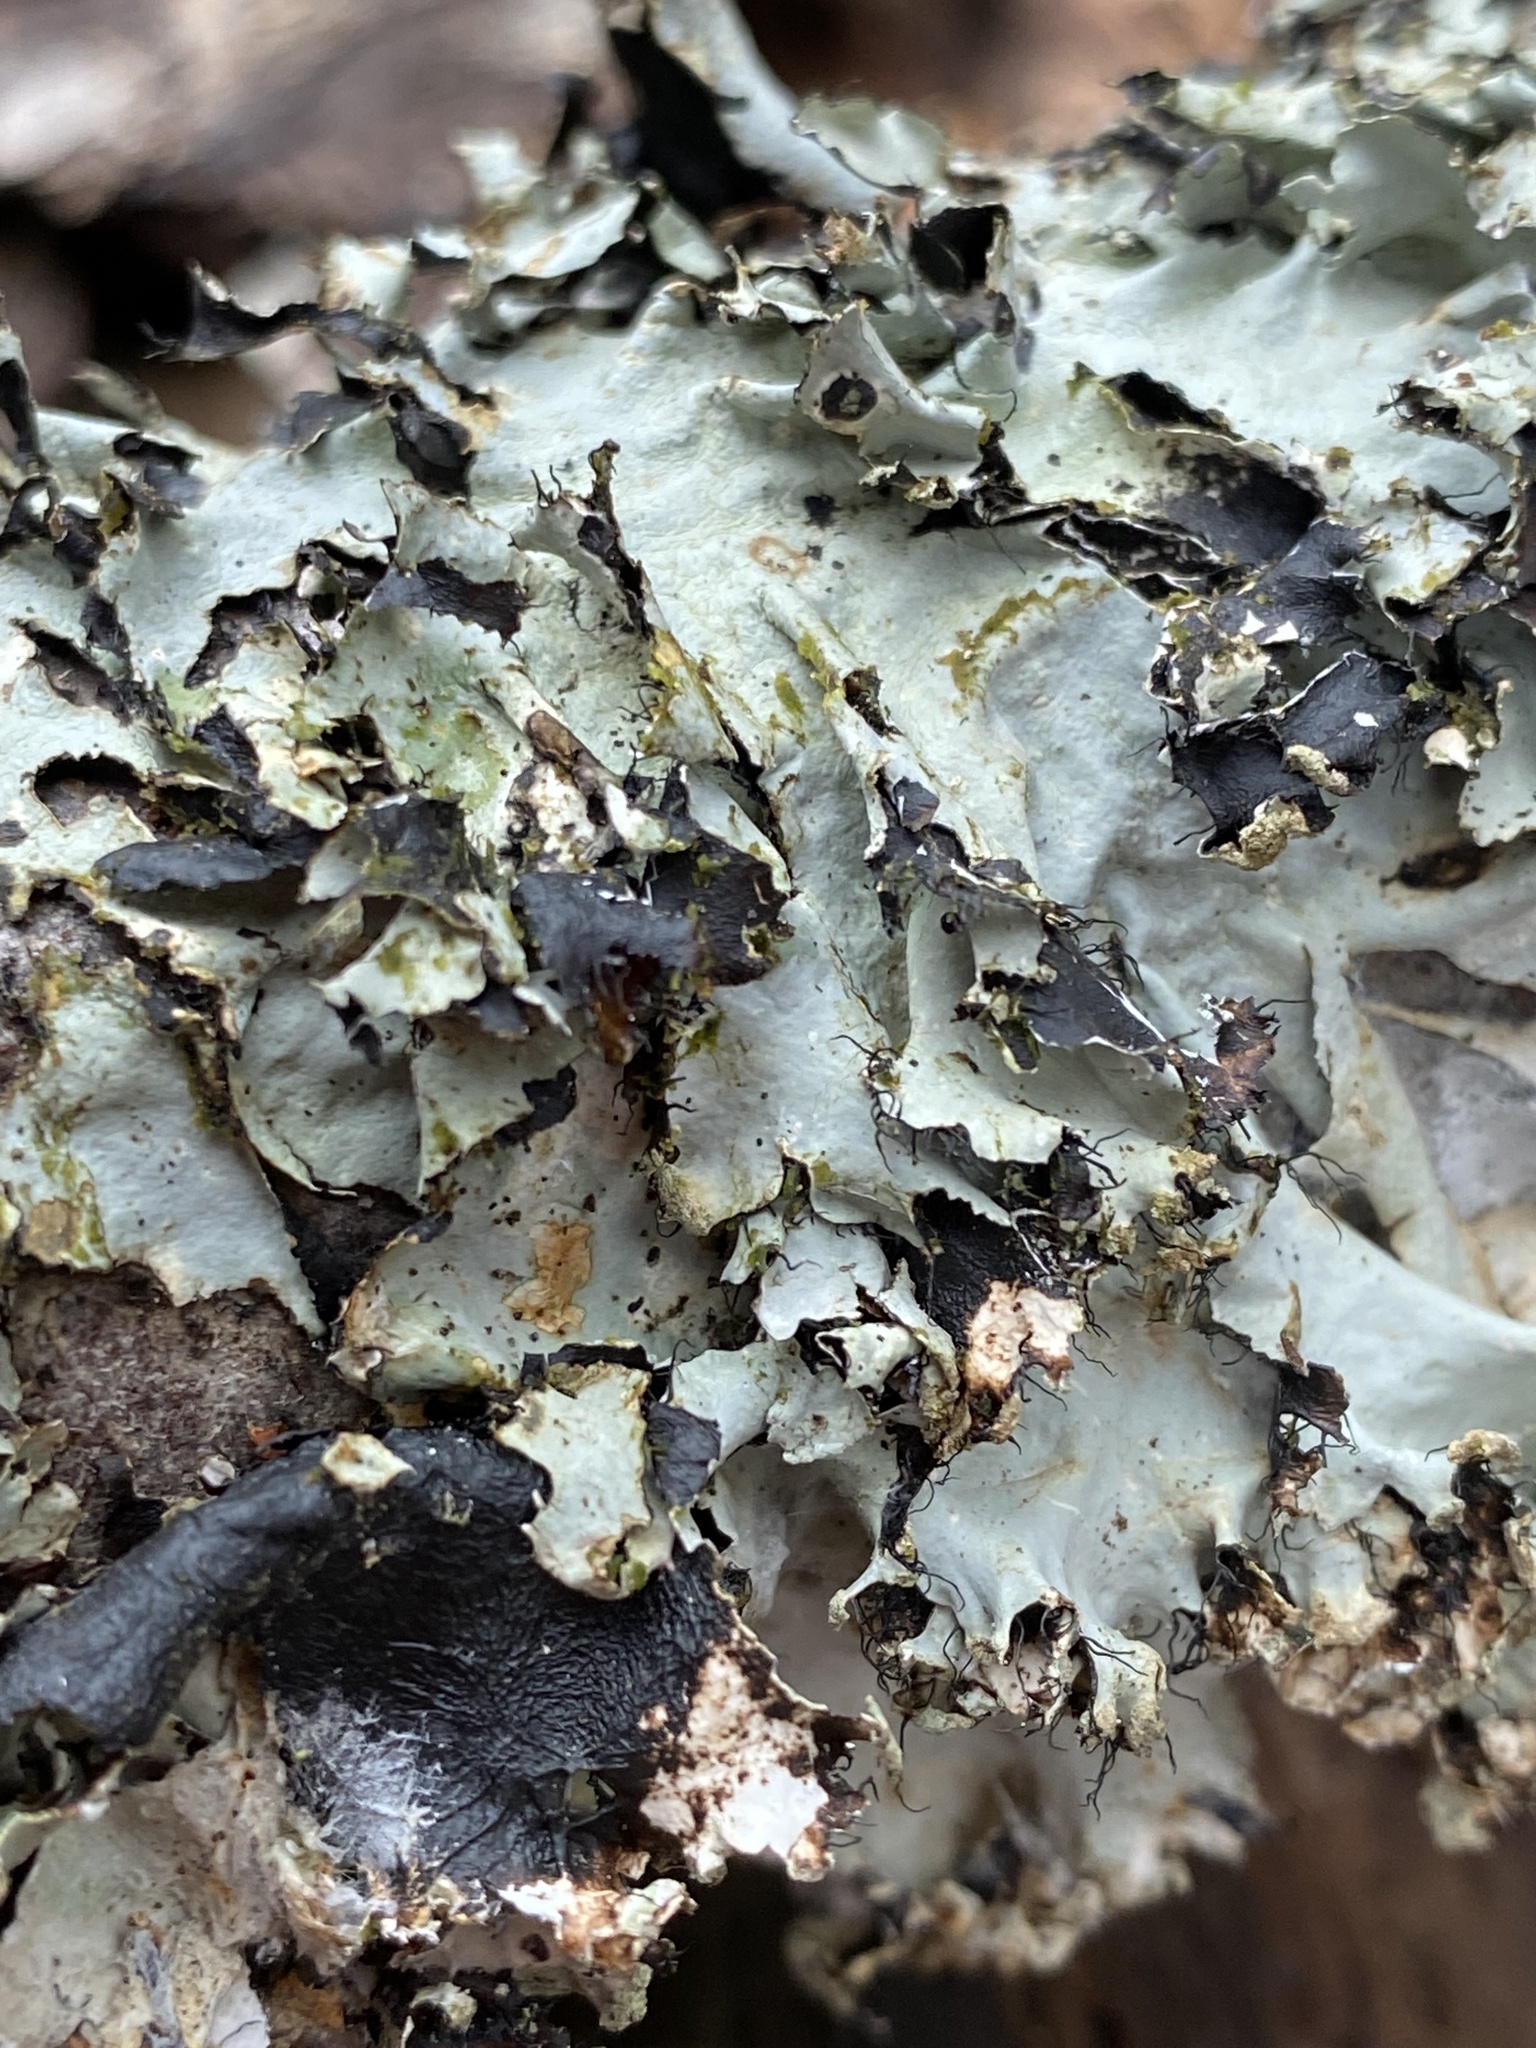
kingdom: Fungi
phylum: Ascomycota
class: Lecanoromycetes
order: Lecanorales
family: Parmeliaceae
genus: Parmotrema
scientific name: Parmotrema arnoldii
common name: Arnold's parmotrema lichen
